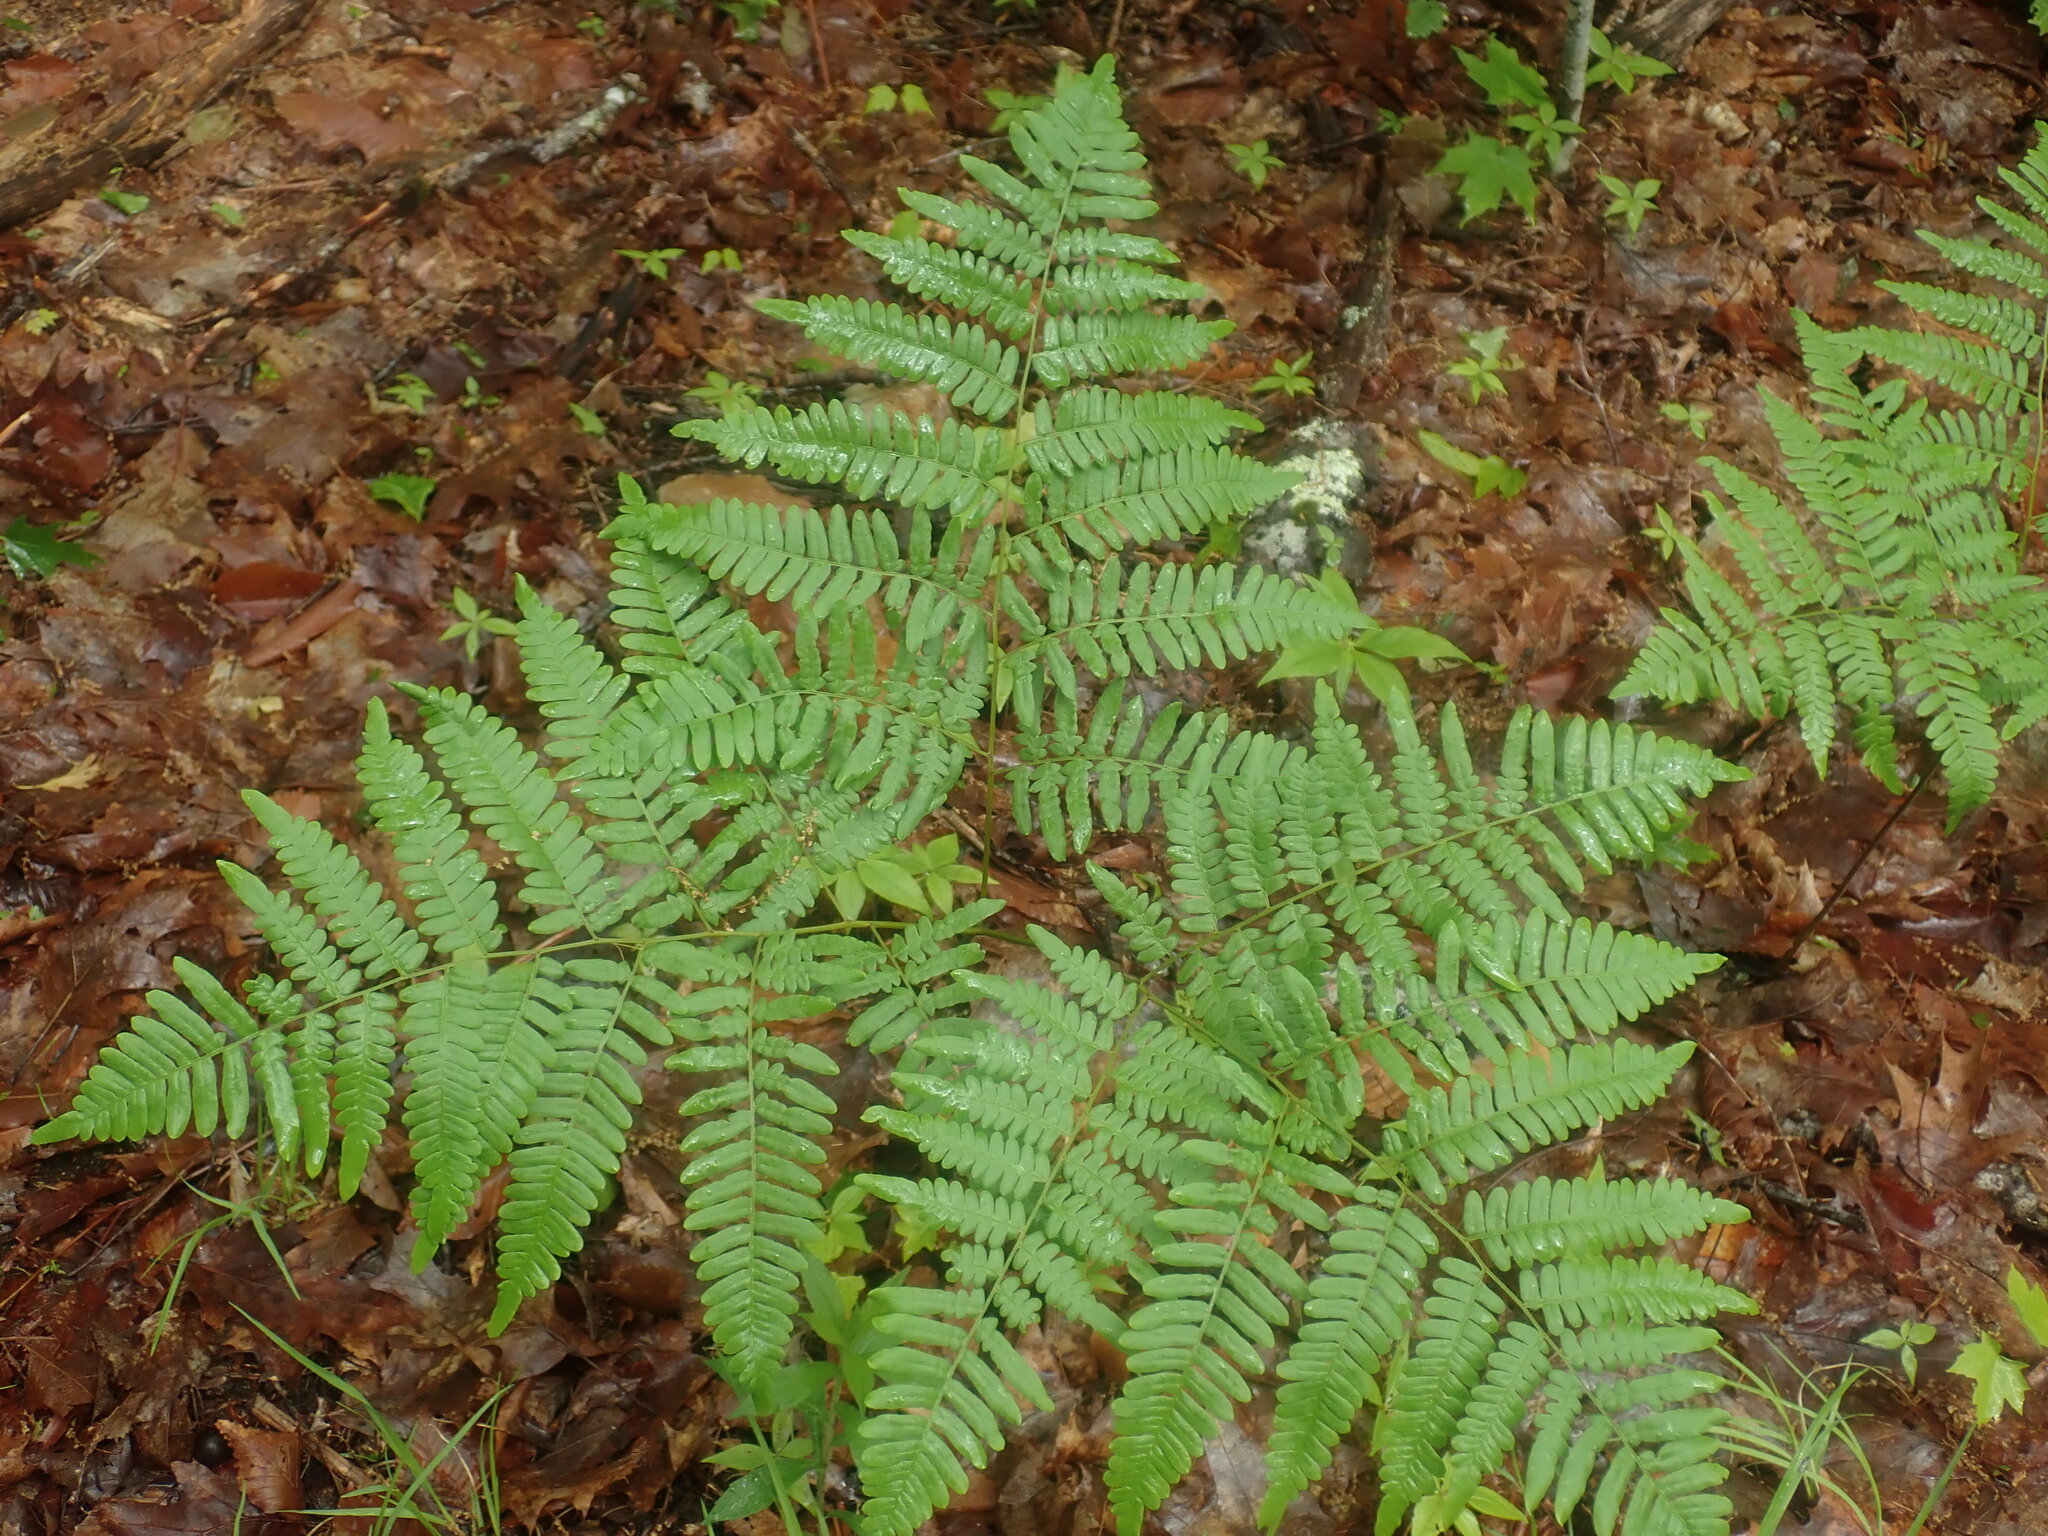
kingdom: Plantae
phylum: Tracheophyta
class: Polypodiopsida
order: Polypodiales
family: Dennstaedtiaceae
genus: Pteridium
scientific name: Pteridium aquilinum
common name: Bracken
